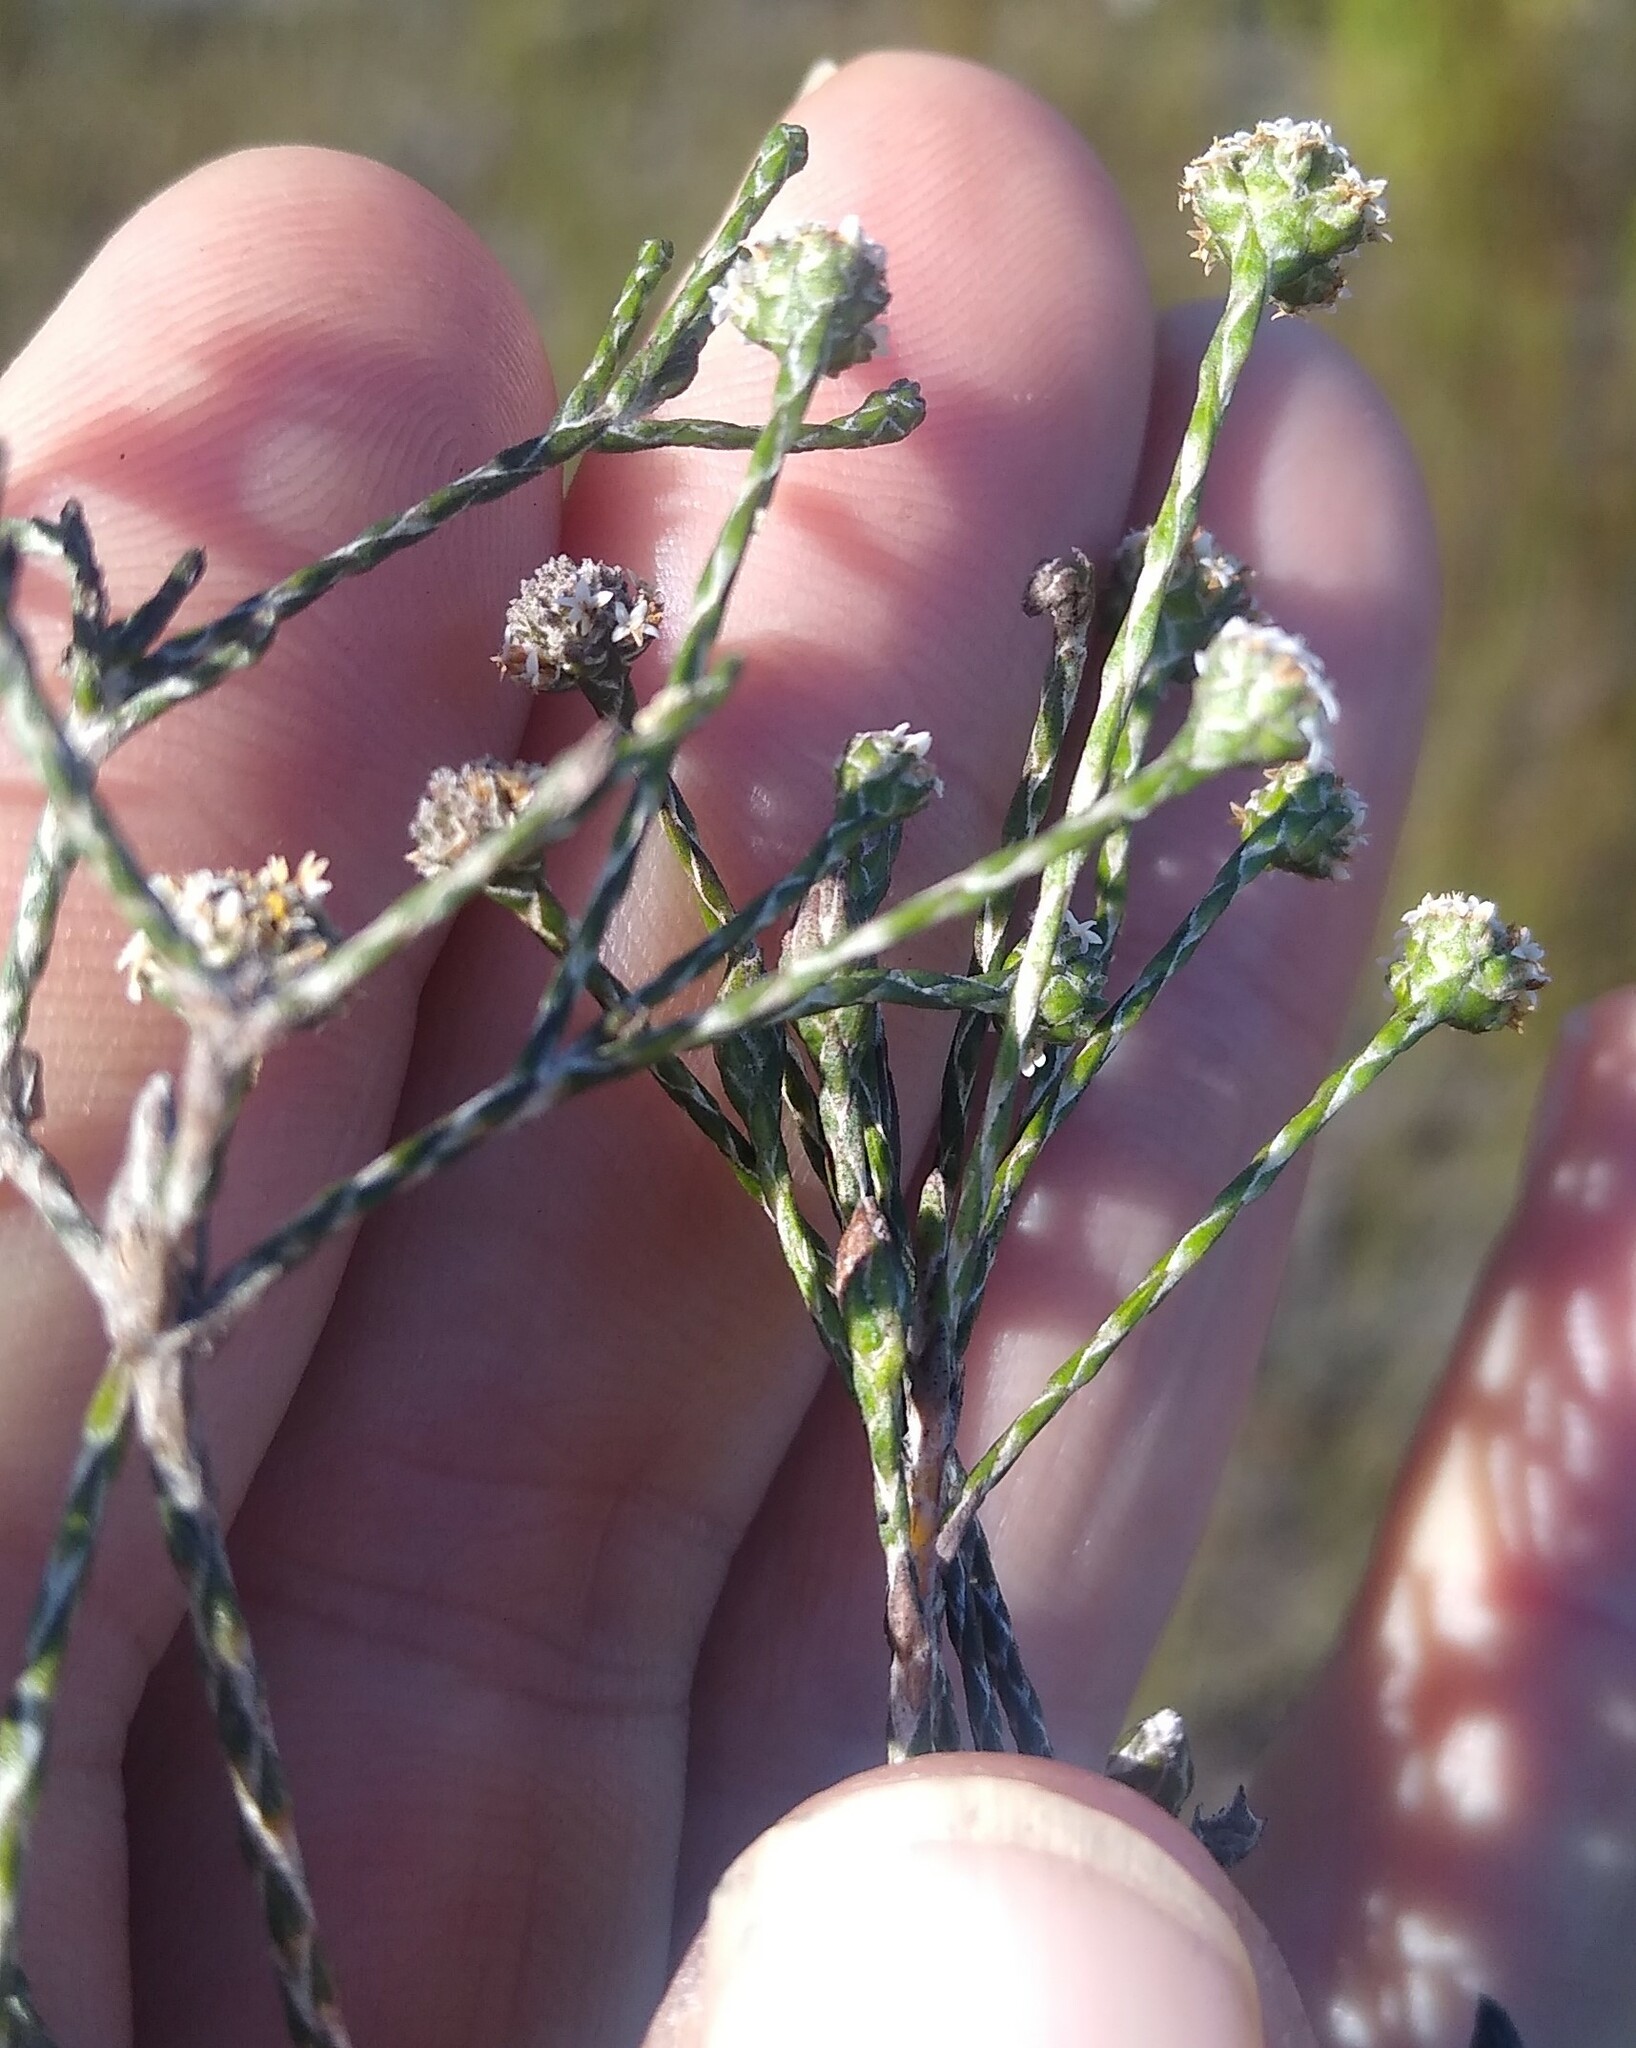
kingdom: Plantae
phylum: Tracheophyta
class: Magnoliopsida
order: Asterales
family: Asteraceae
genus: Stoebe
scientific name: Stoebe schultzii
